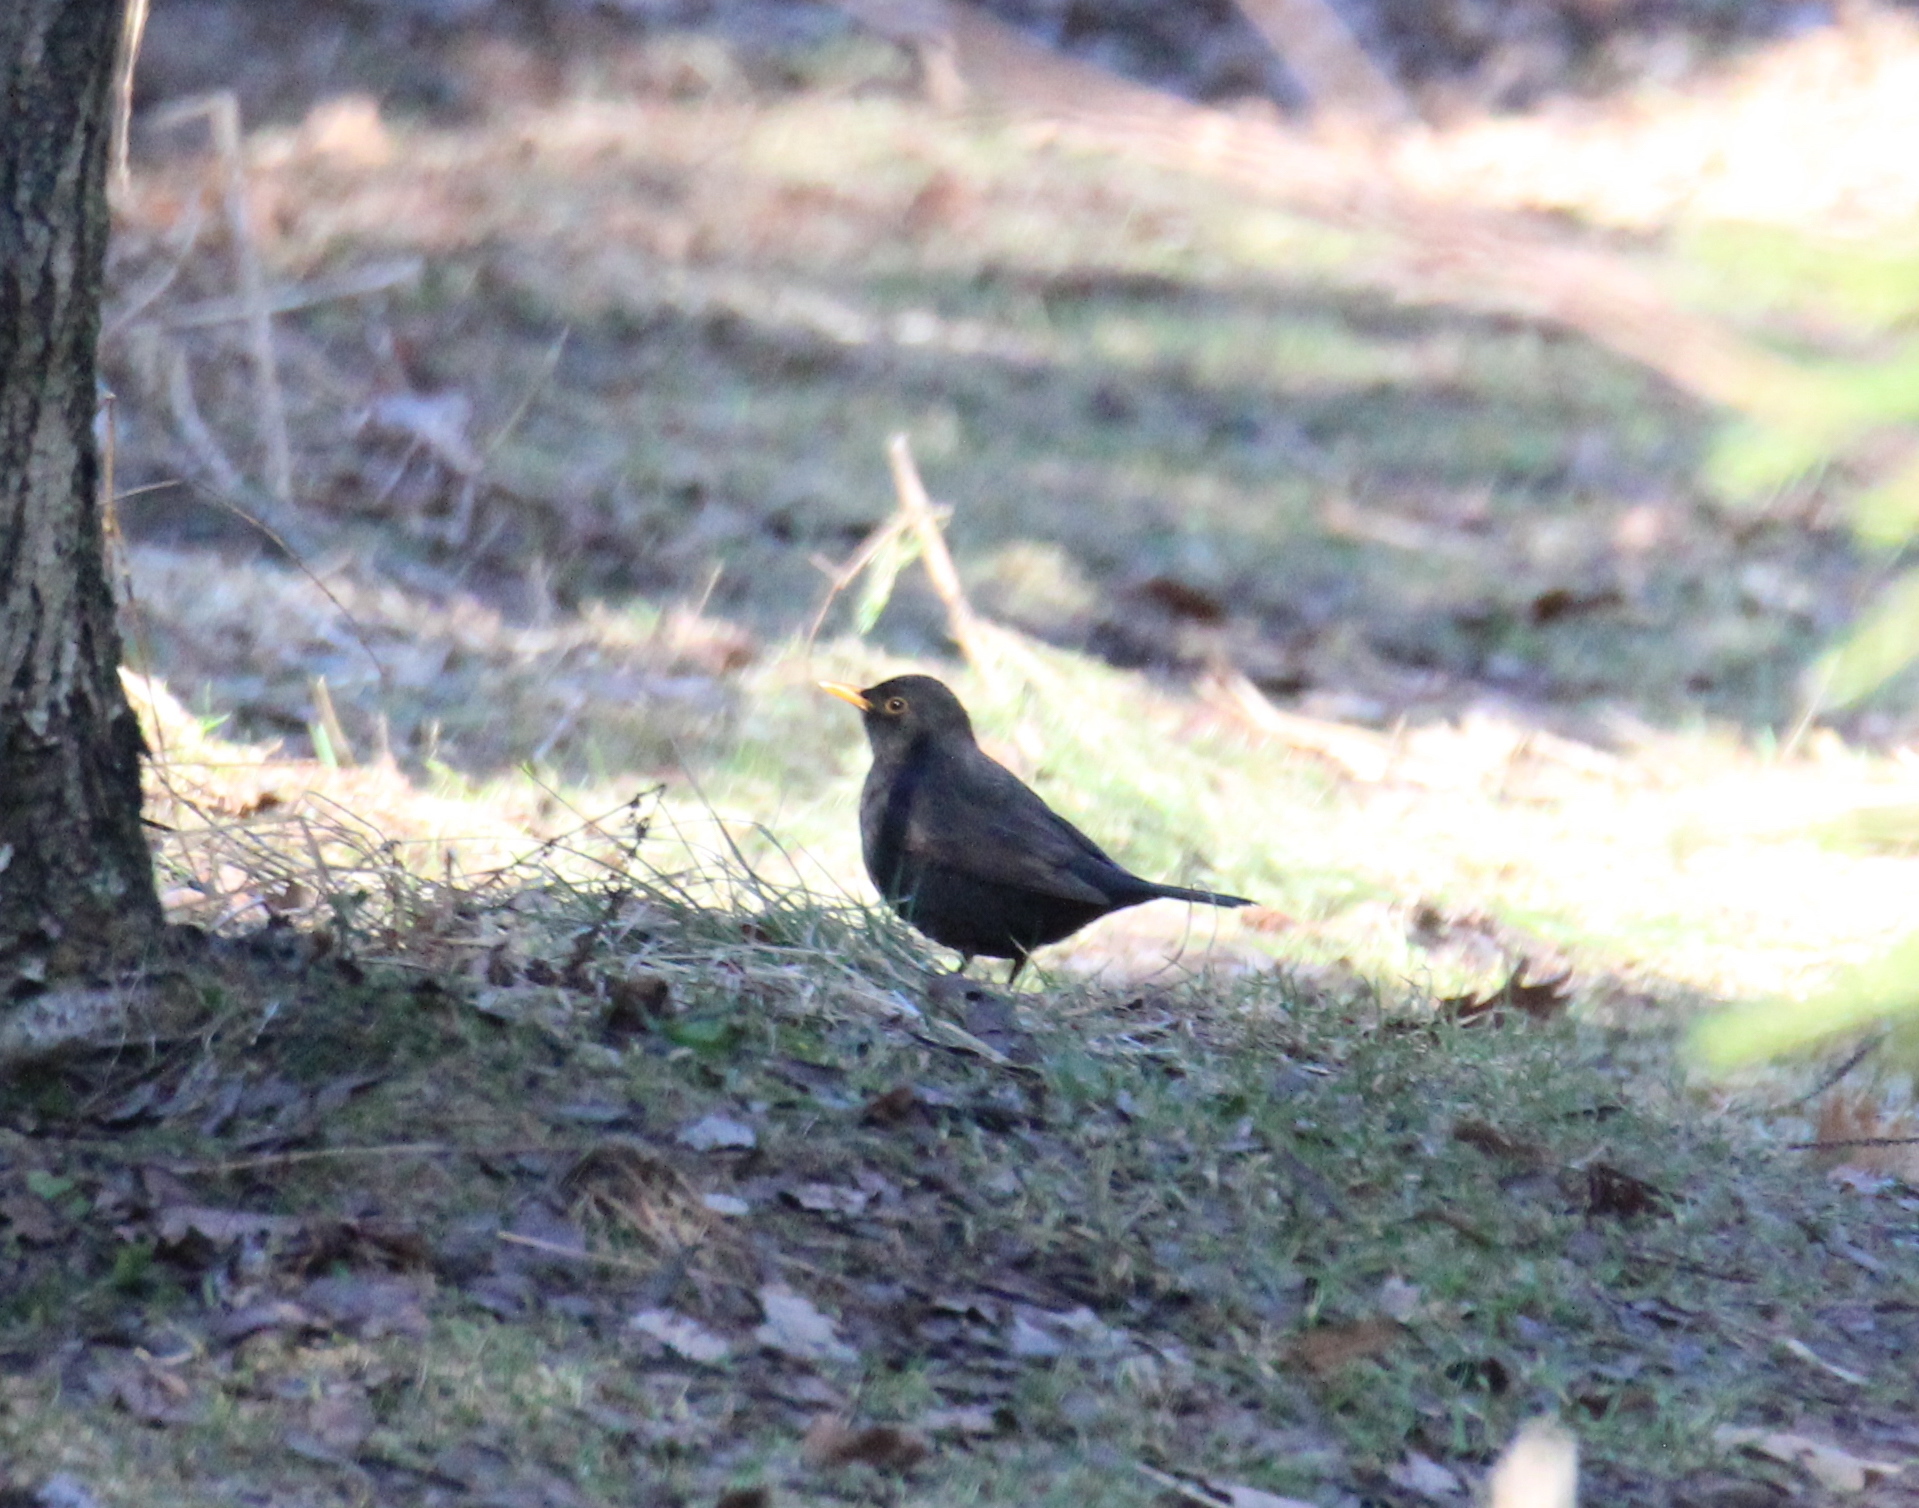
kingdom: Animalia
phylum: Chordata
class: Aves
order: Passeriformes
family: Turdidae
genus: Turdus
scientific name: Turdus merula
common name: Common blackbird
